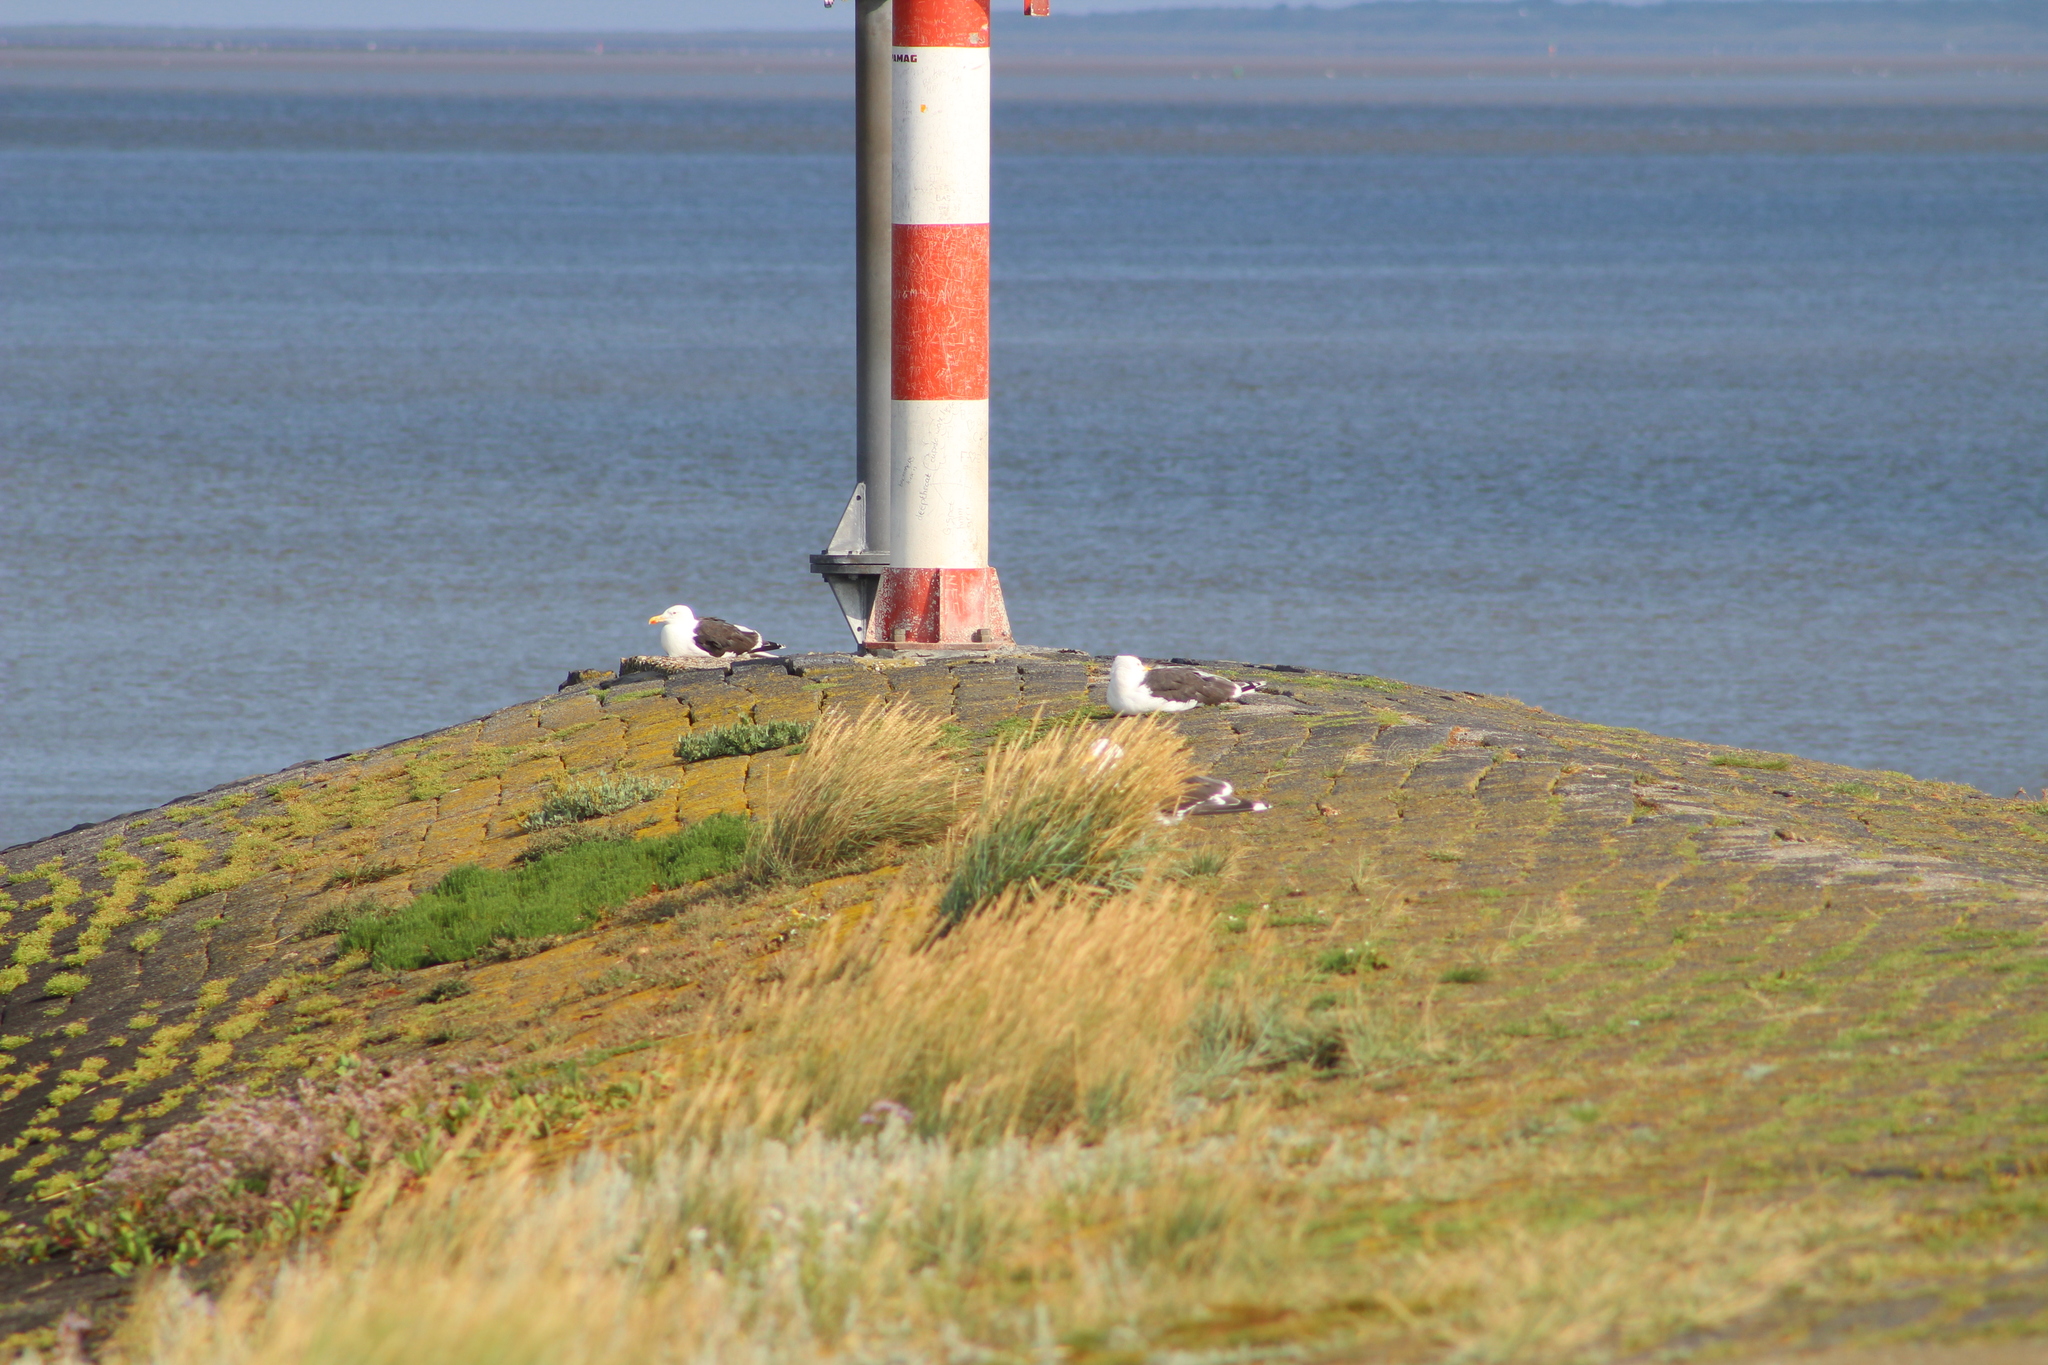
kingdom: Animalia
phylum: Chordata
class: Aves
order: Charadriiformes
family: Laridae
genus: Larus
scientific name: Larus fuscus
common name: Lesser black-backed gull
